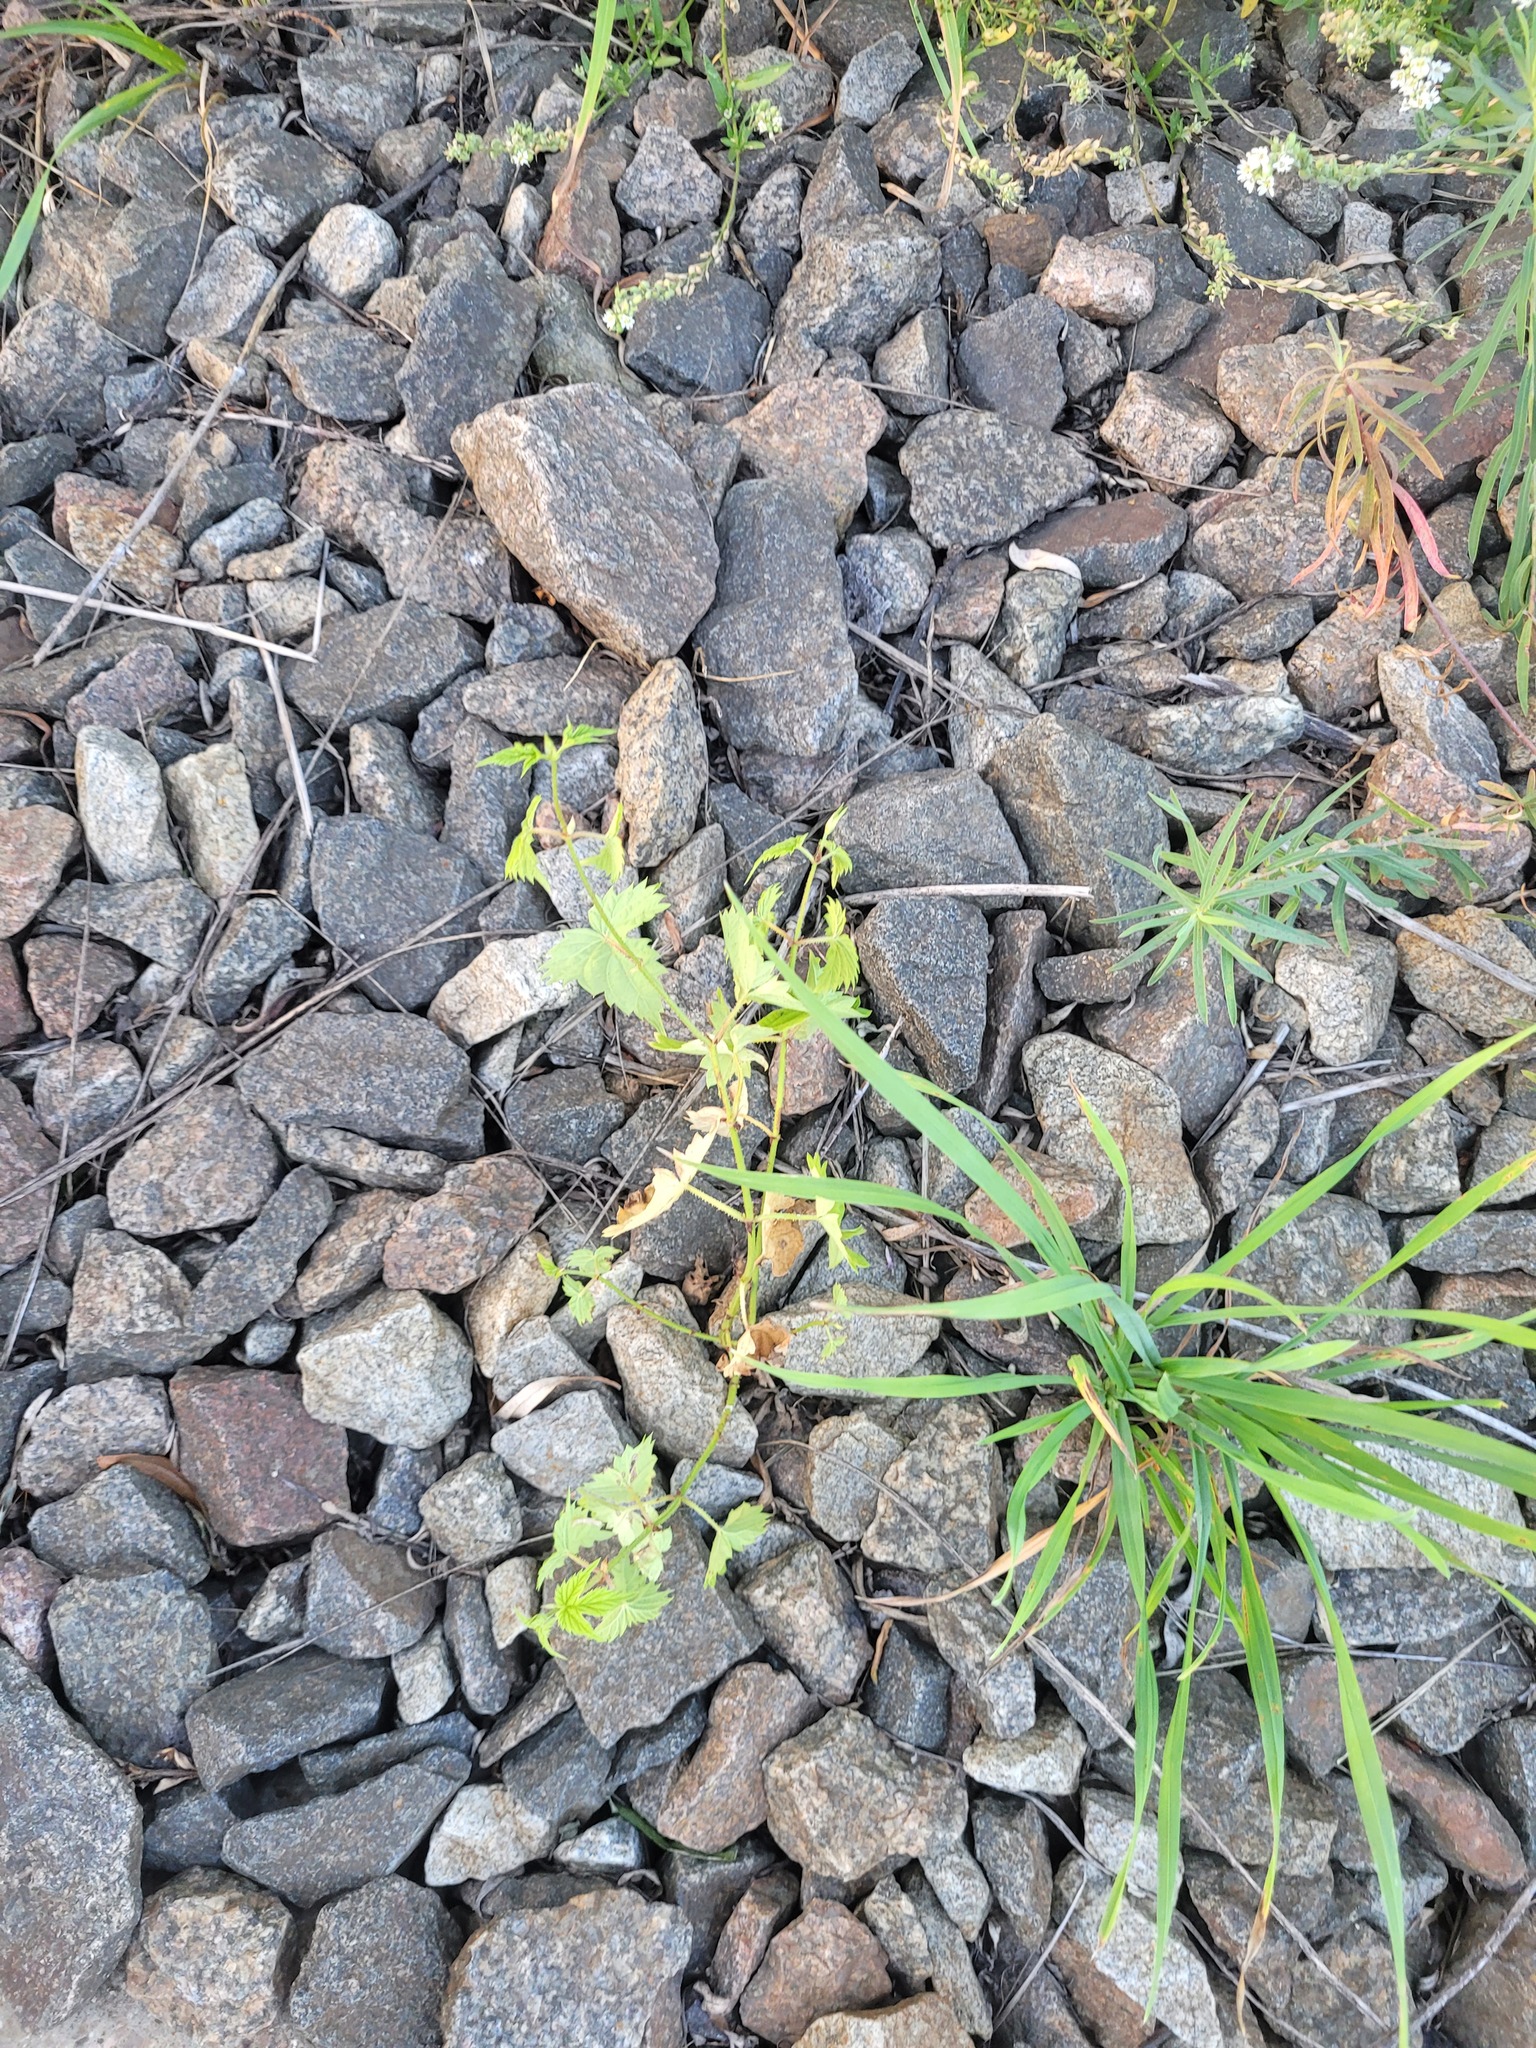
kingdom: Plantae
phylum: Tracheophyta
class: Magnoliopsida
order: Rosales
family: Cannabaceae
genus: Humulus
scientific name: Humulus lupulus
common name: Hop
